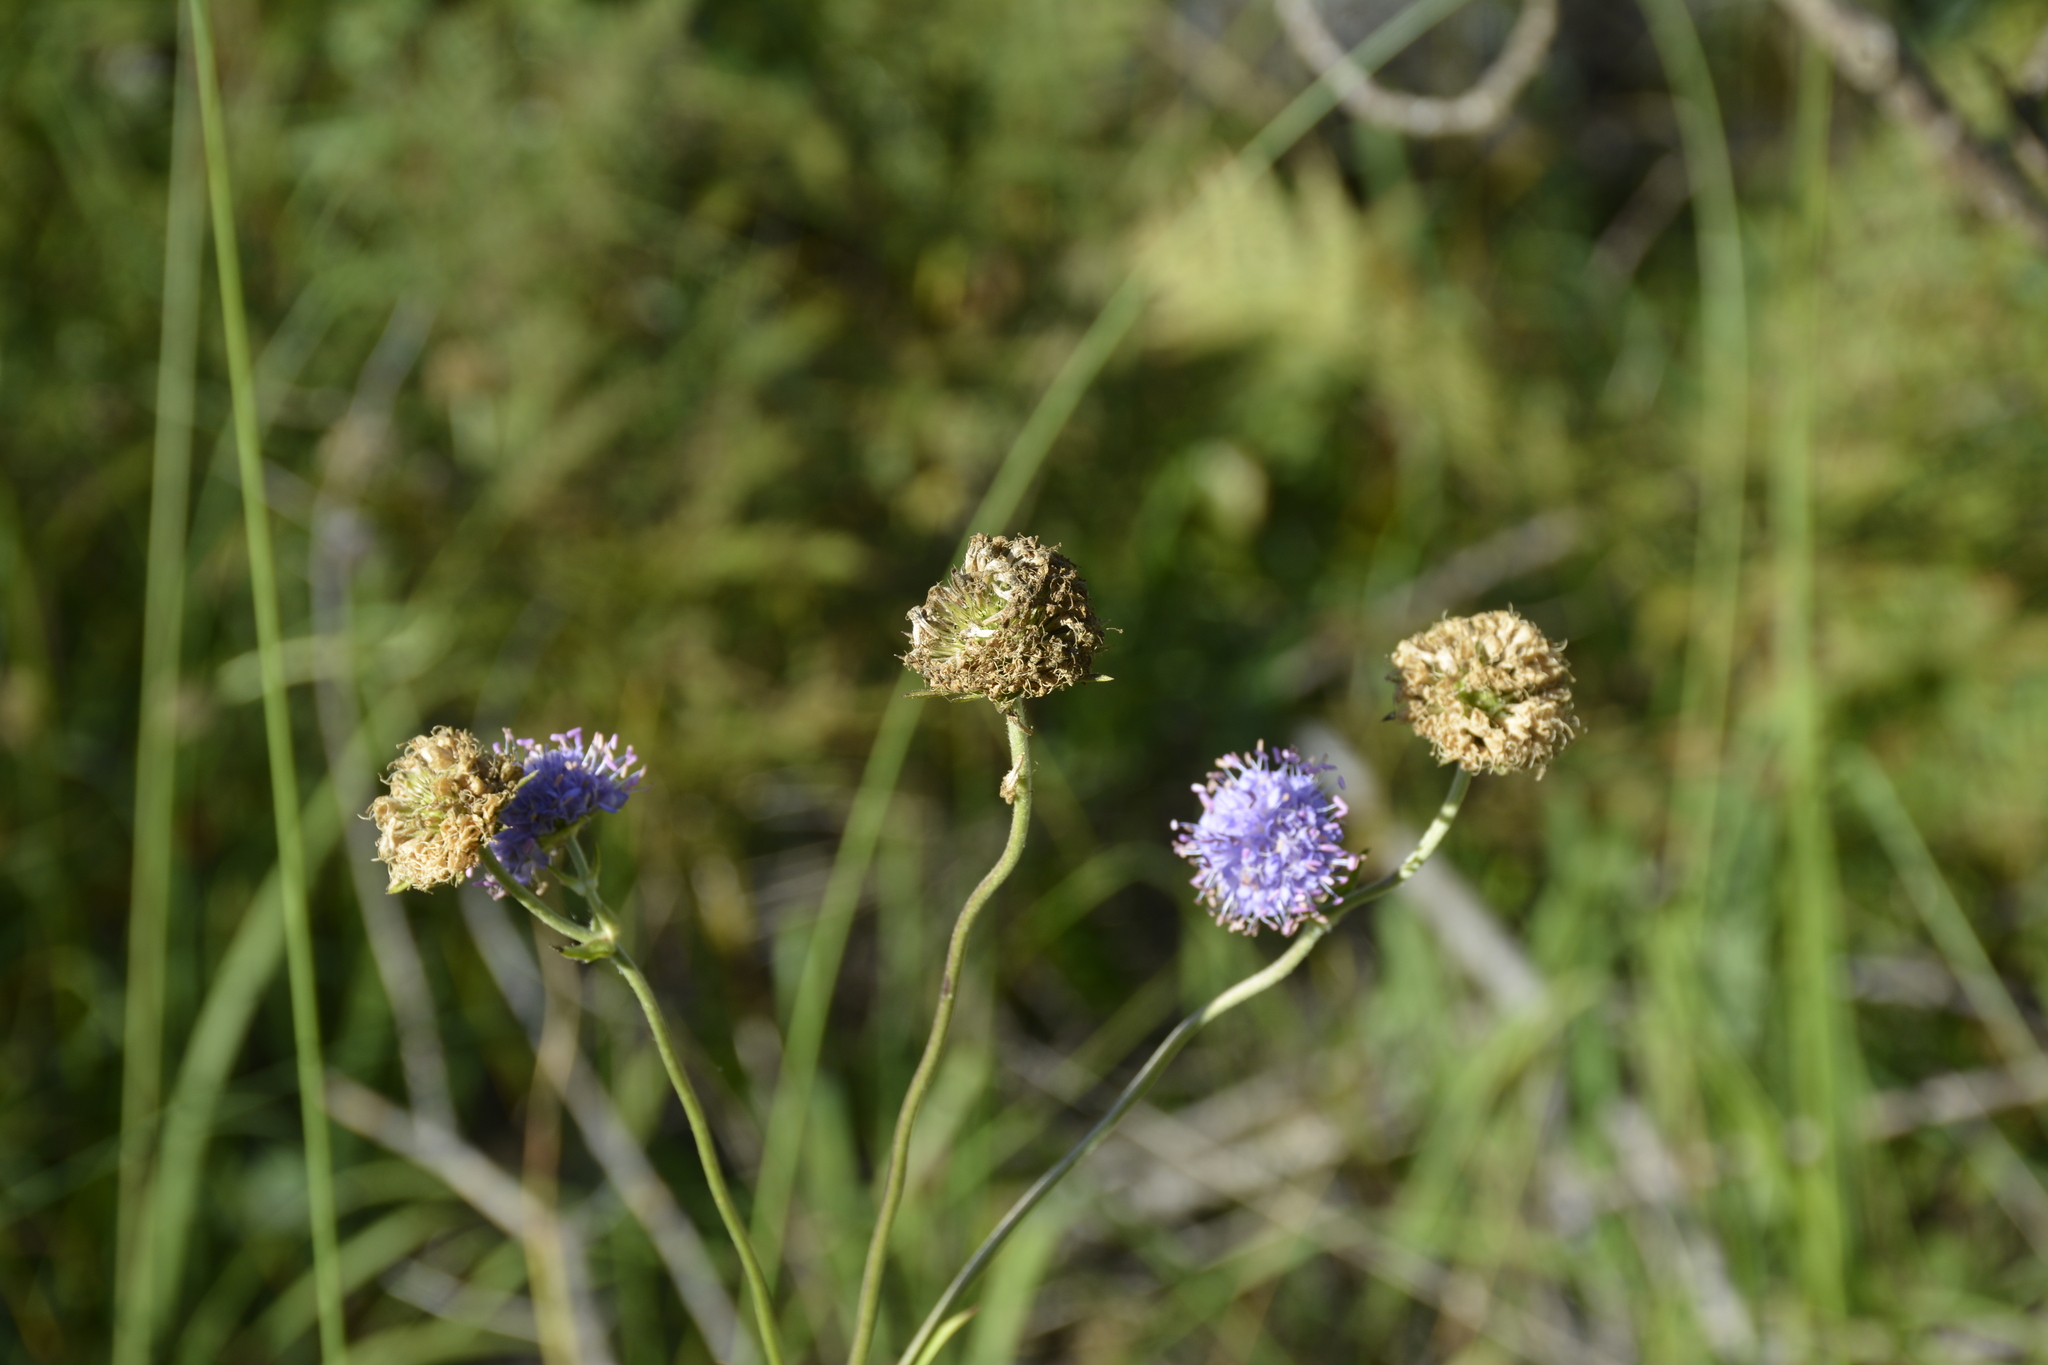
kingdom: Plantae
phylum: Tracheophyta
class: Magnoliopsida
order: Dipsacales
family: Caprifoliaceae
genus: Succisa
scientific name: Succisa pratensis
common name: Devil's-bit
